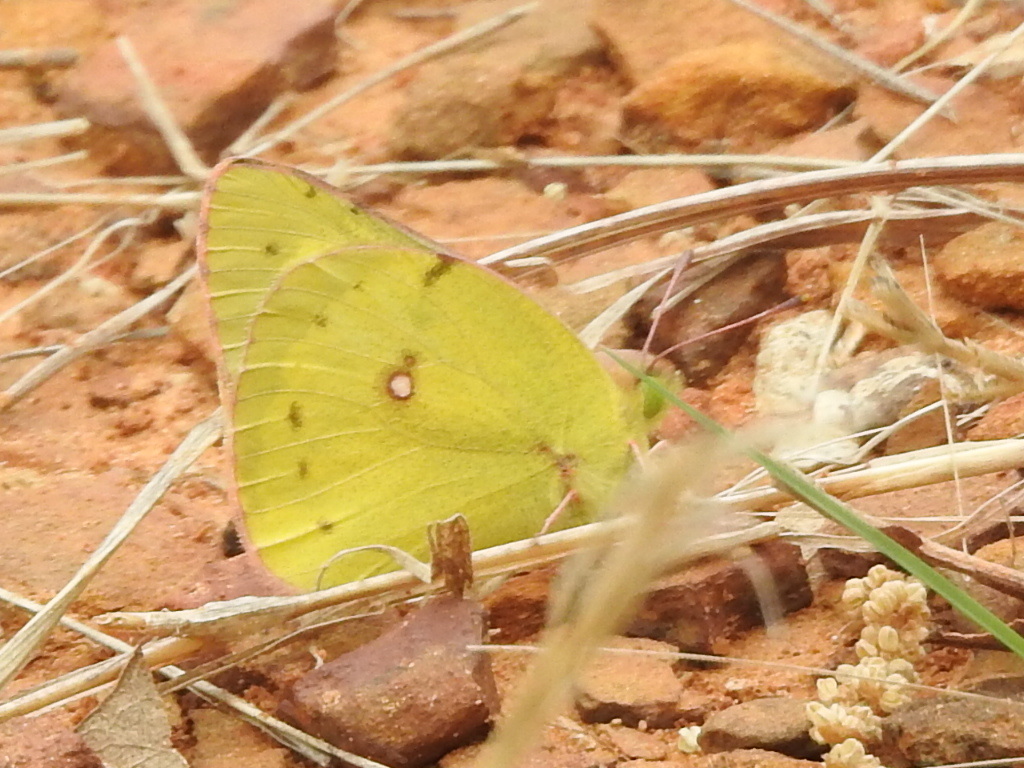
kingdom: Animalia
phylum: Arthropoda
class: Insecta
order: Lepidoptera
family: Pieridae
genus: Colias
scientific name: Colias eurytheme
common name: Alfalfa butterfly
